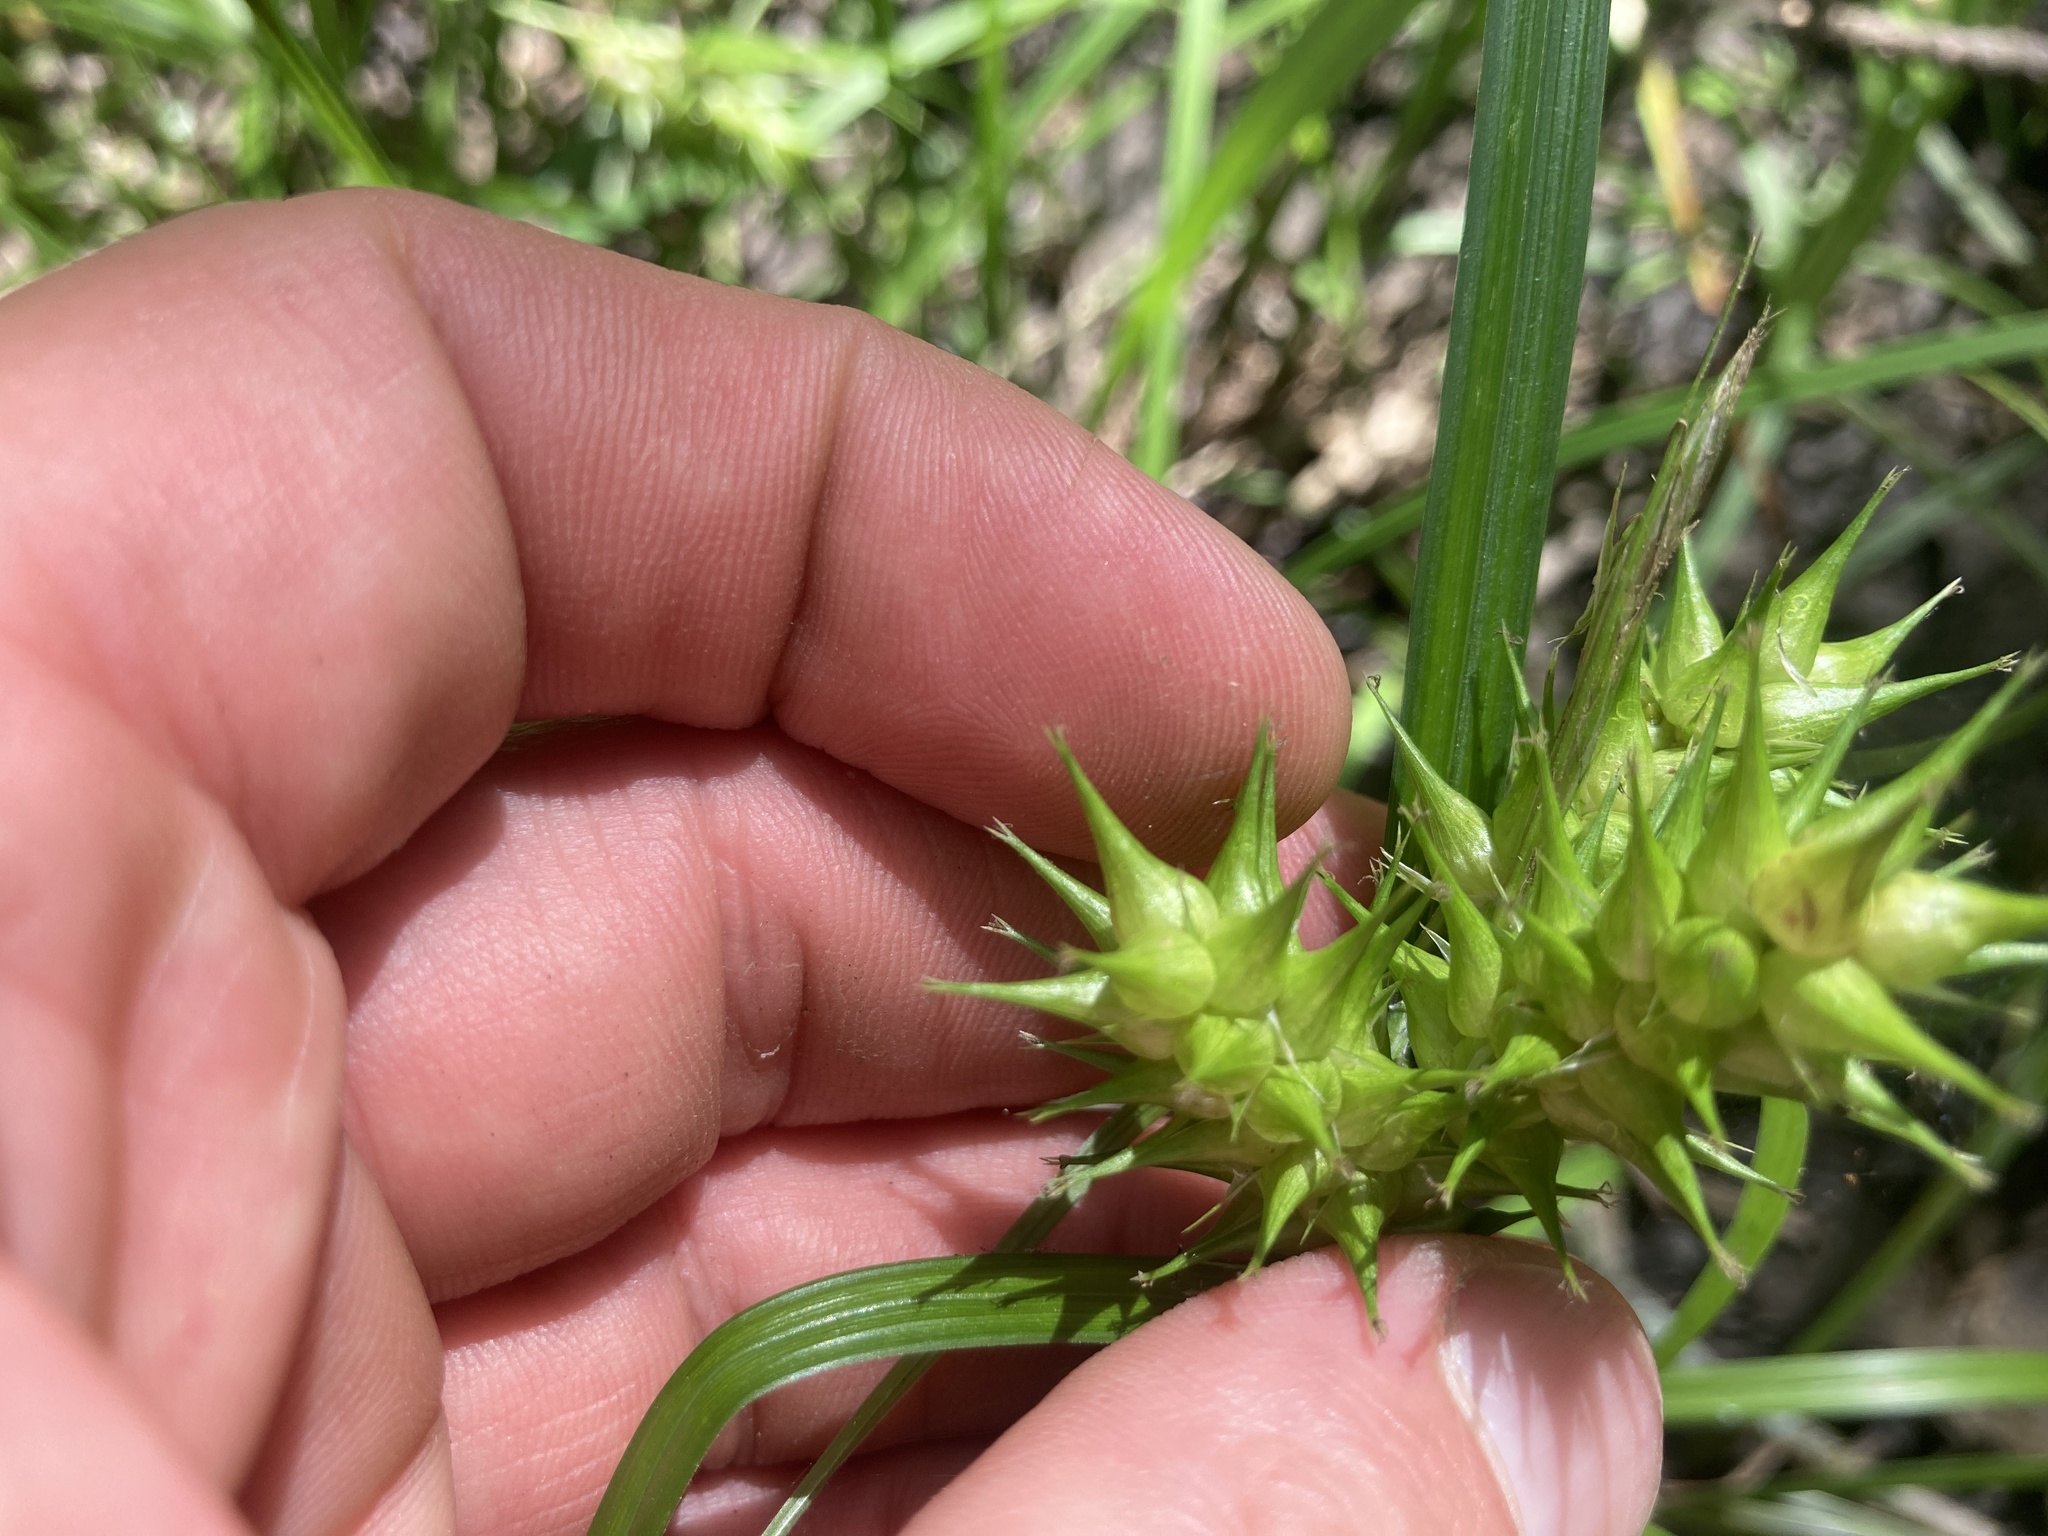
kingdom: Plantae
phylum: Tracheophyta
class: Liliopsida
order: Poales
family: Cyperaceae
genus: Carex
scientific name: Carex lupulina
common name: Hop sedge
